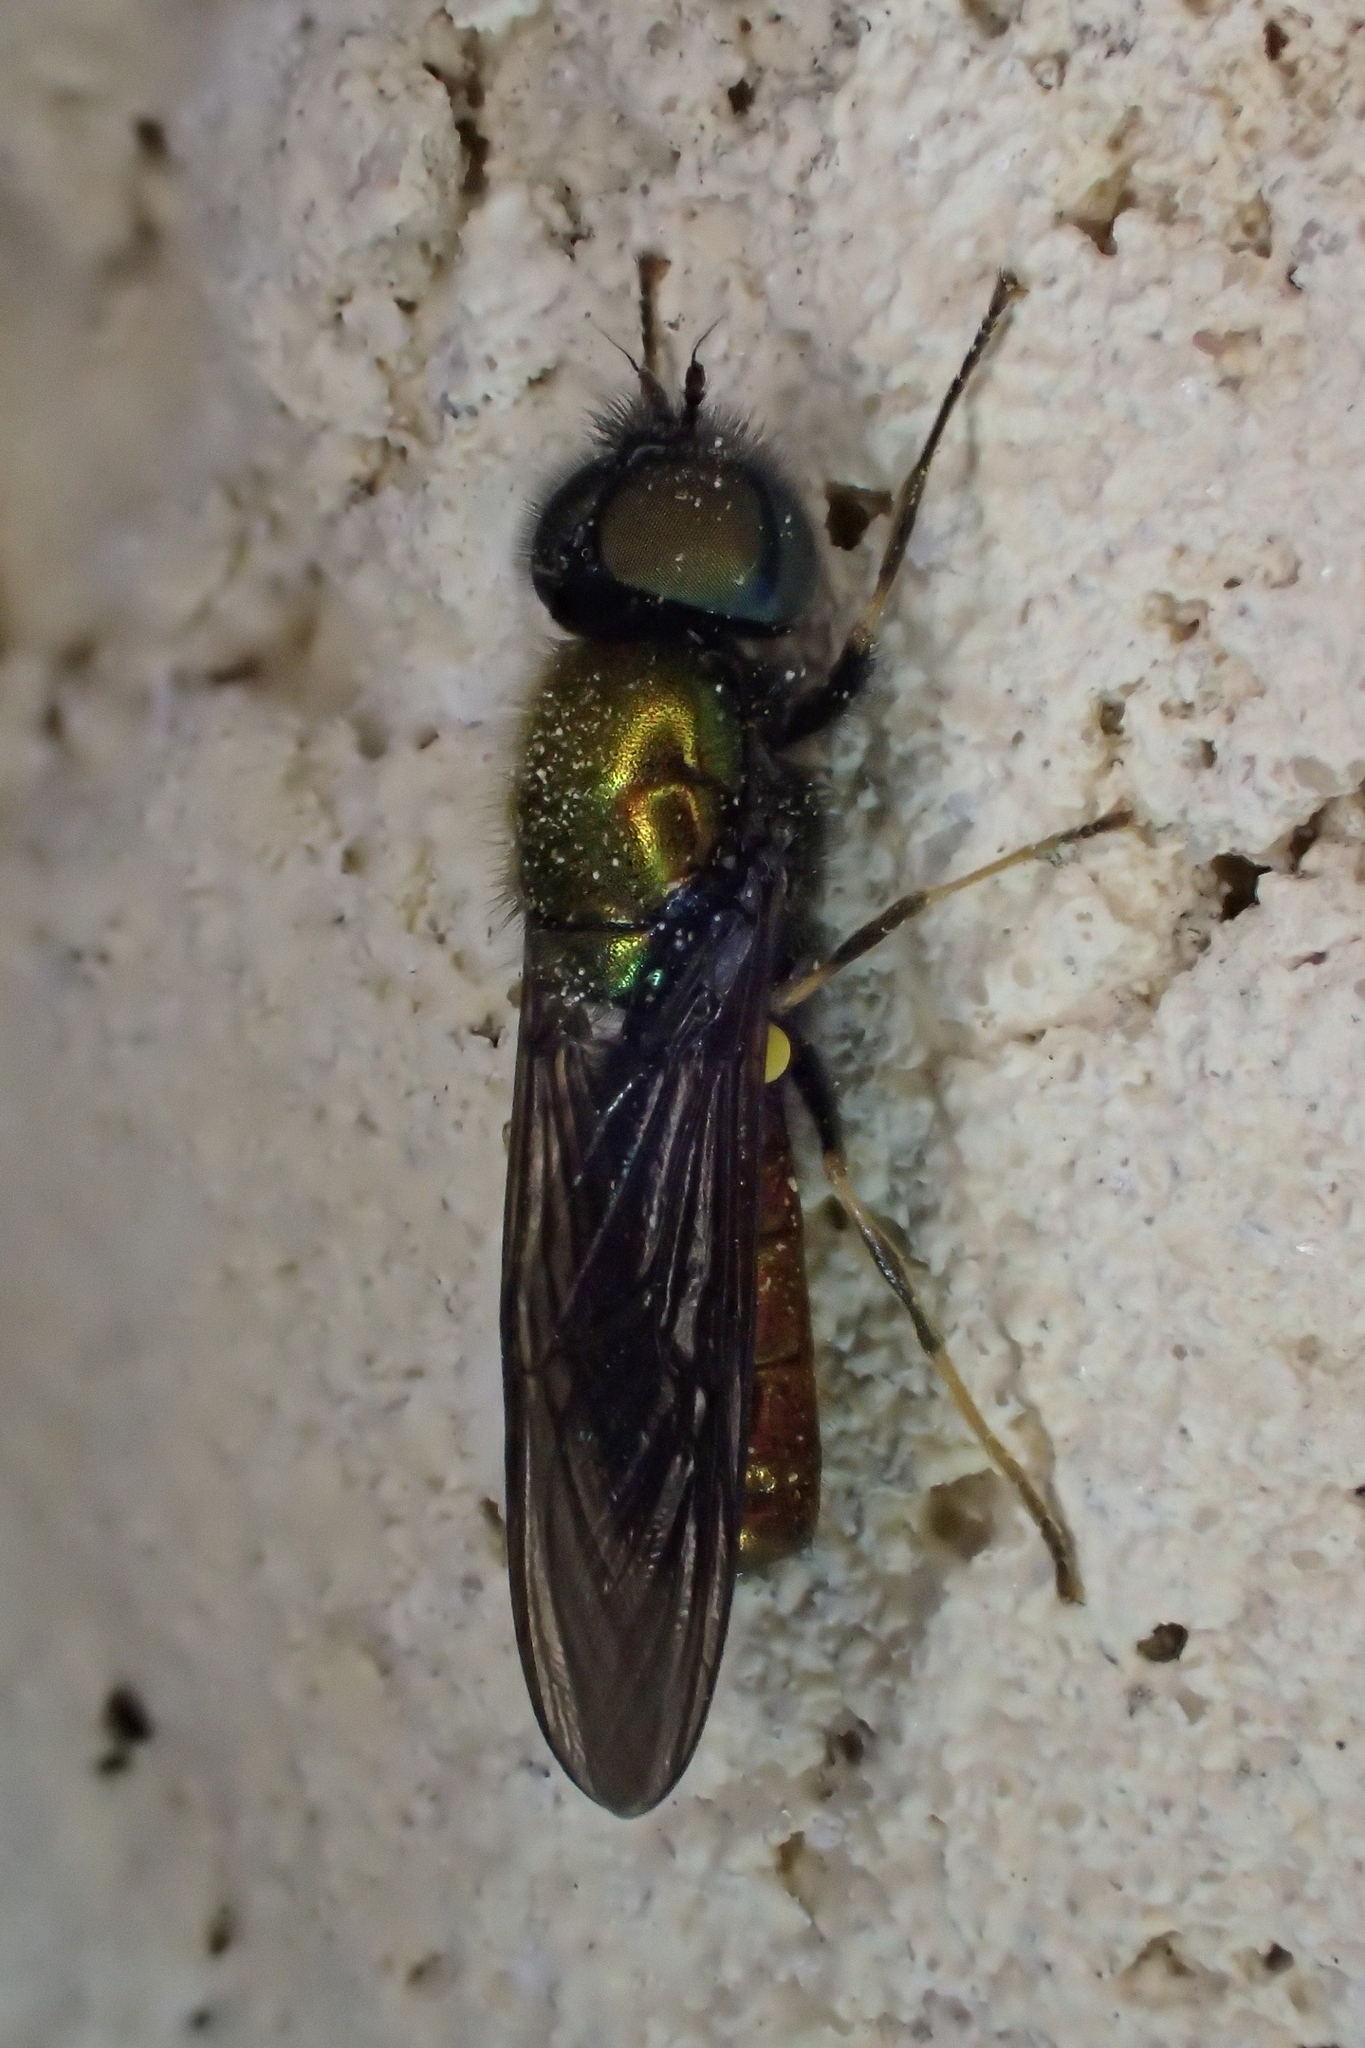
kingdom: Animalia
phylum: Arthropoda
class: Insecta
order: Diptera
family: Stratiomyidae
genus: Chloromyia
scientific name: Chloromyia speciosa
